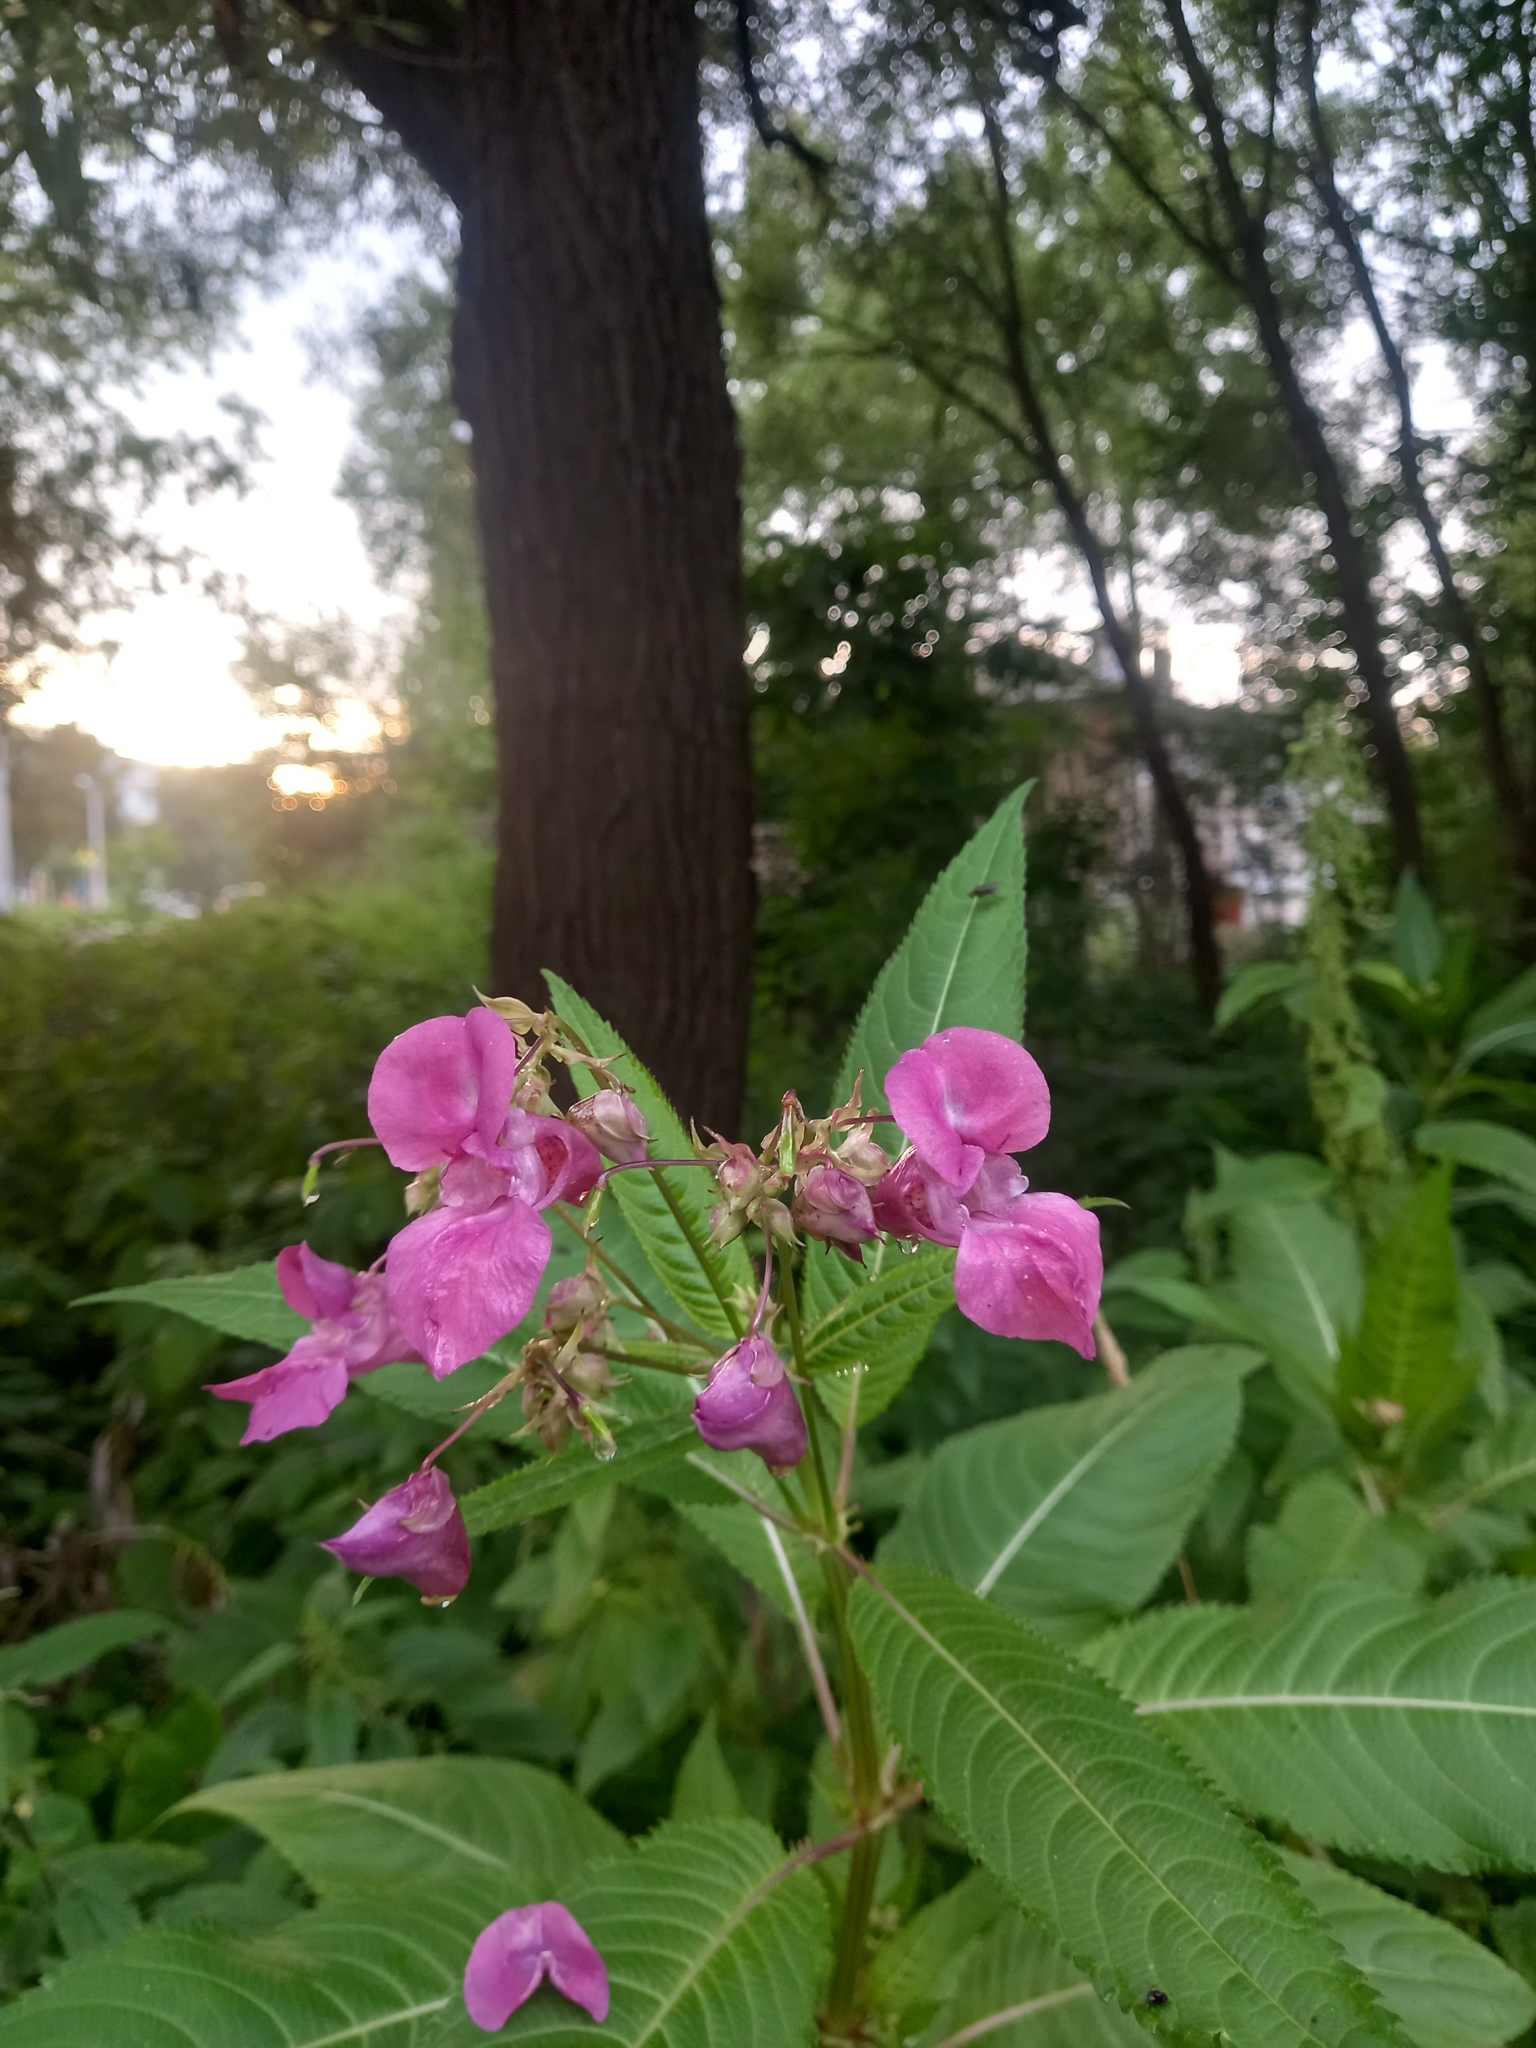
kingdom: Plantae
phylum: Tracheophyta
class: Magnoliopsida
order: Ericales
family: Balsaminaceae
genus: Impatiens
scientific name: Impatiens glandulifera
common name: Himalayan balsam
